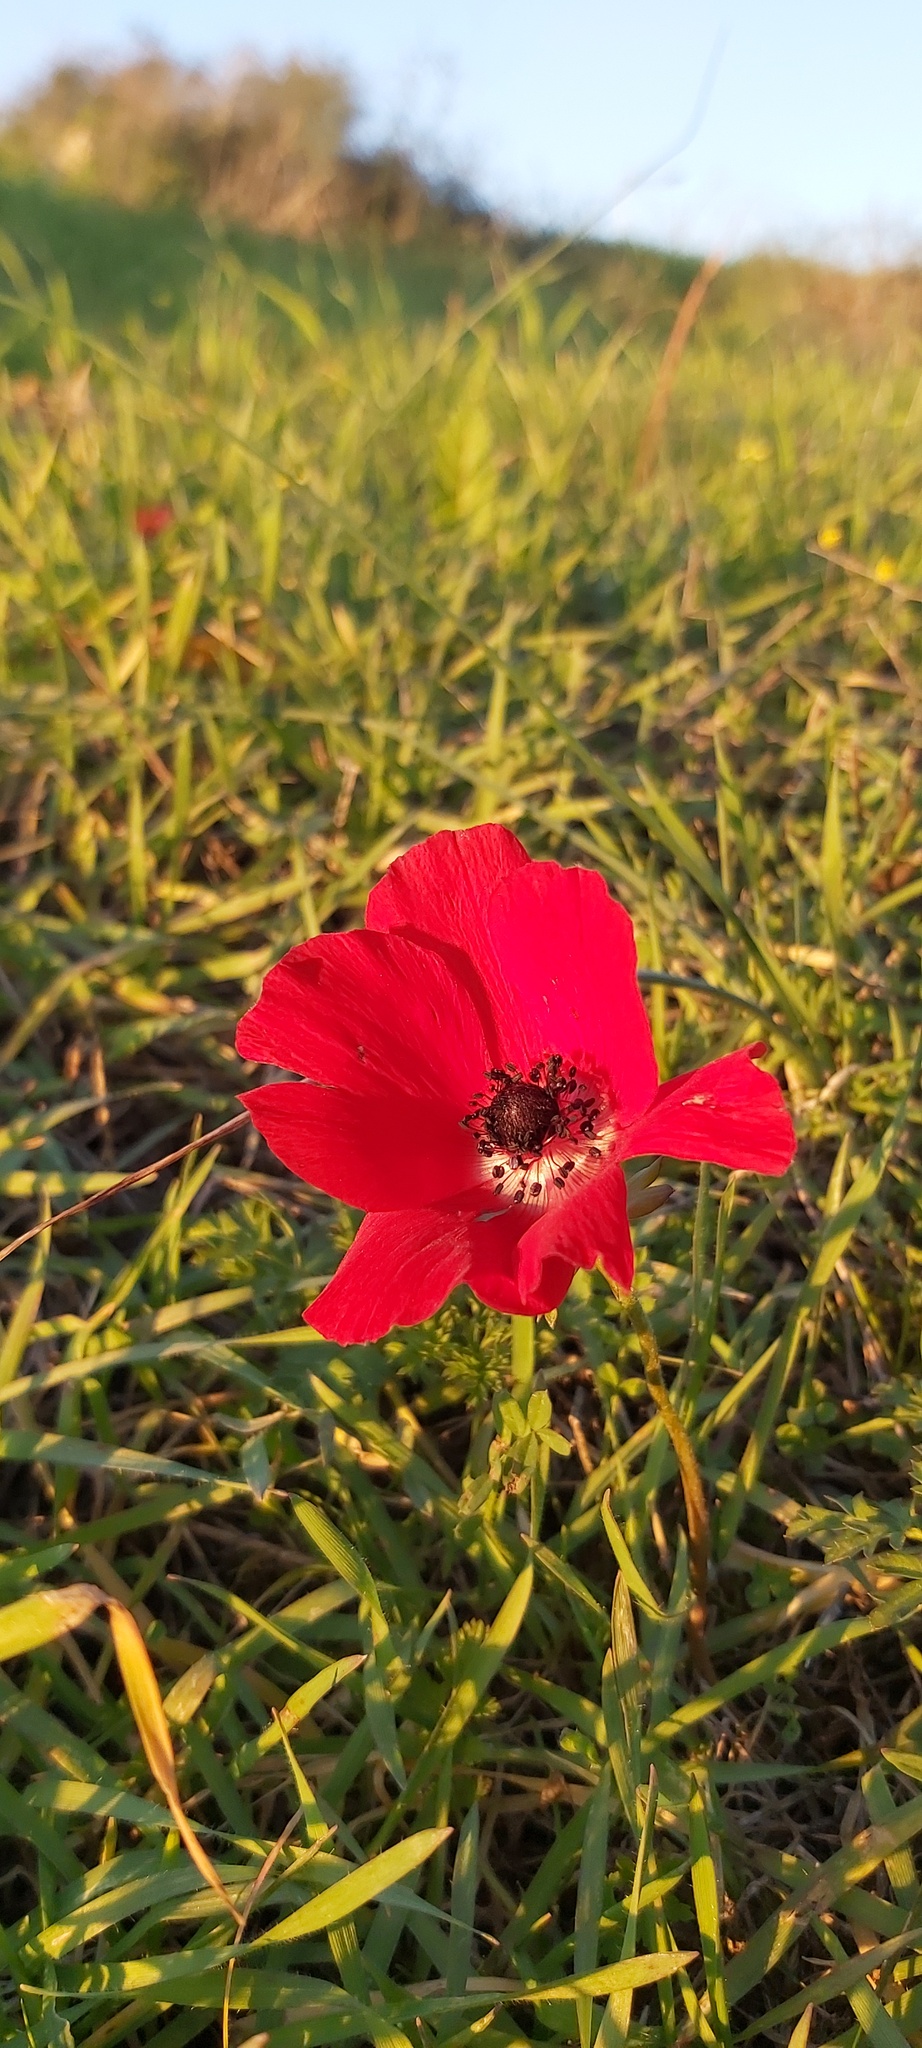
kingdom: Plantae
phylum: Tracheophyta
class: Magnoliopsida
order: Ranunculales
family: Ranunculaceae
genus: Anemone
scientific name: Anemone coronaria
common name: Poppy anemone
